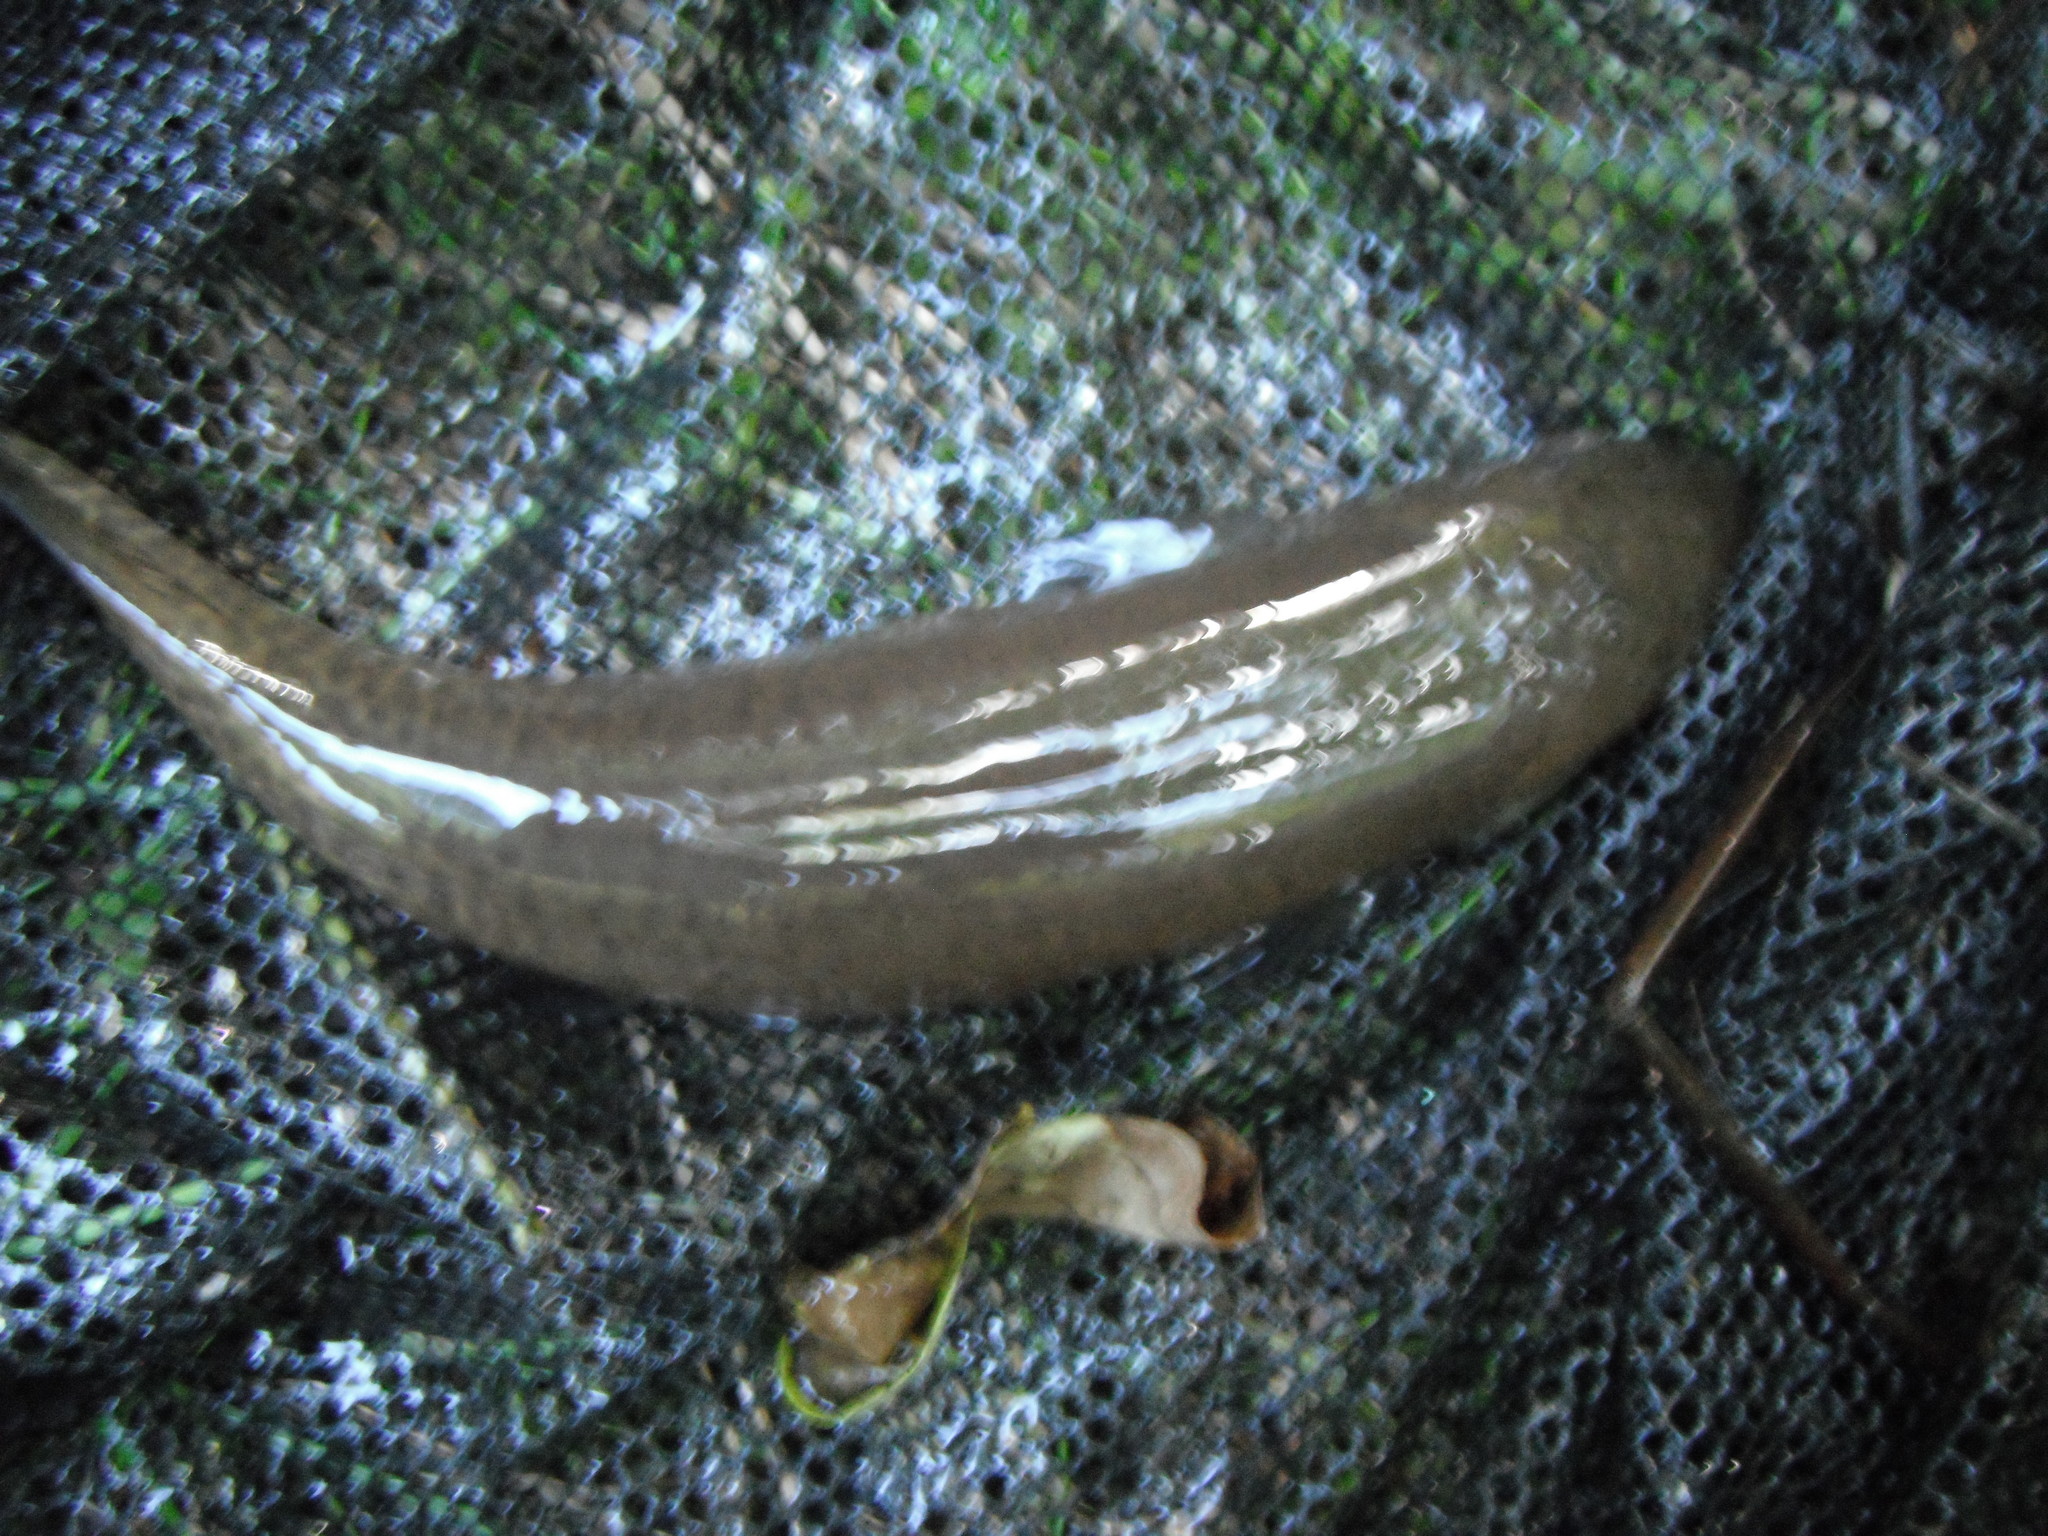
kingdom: Animalia
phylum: Chordata
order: Osmeriformes
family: Galaxiidae
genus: Galaxias
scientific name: Galaxias fasciatus
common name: Banded kokopu
